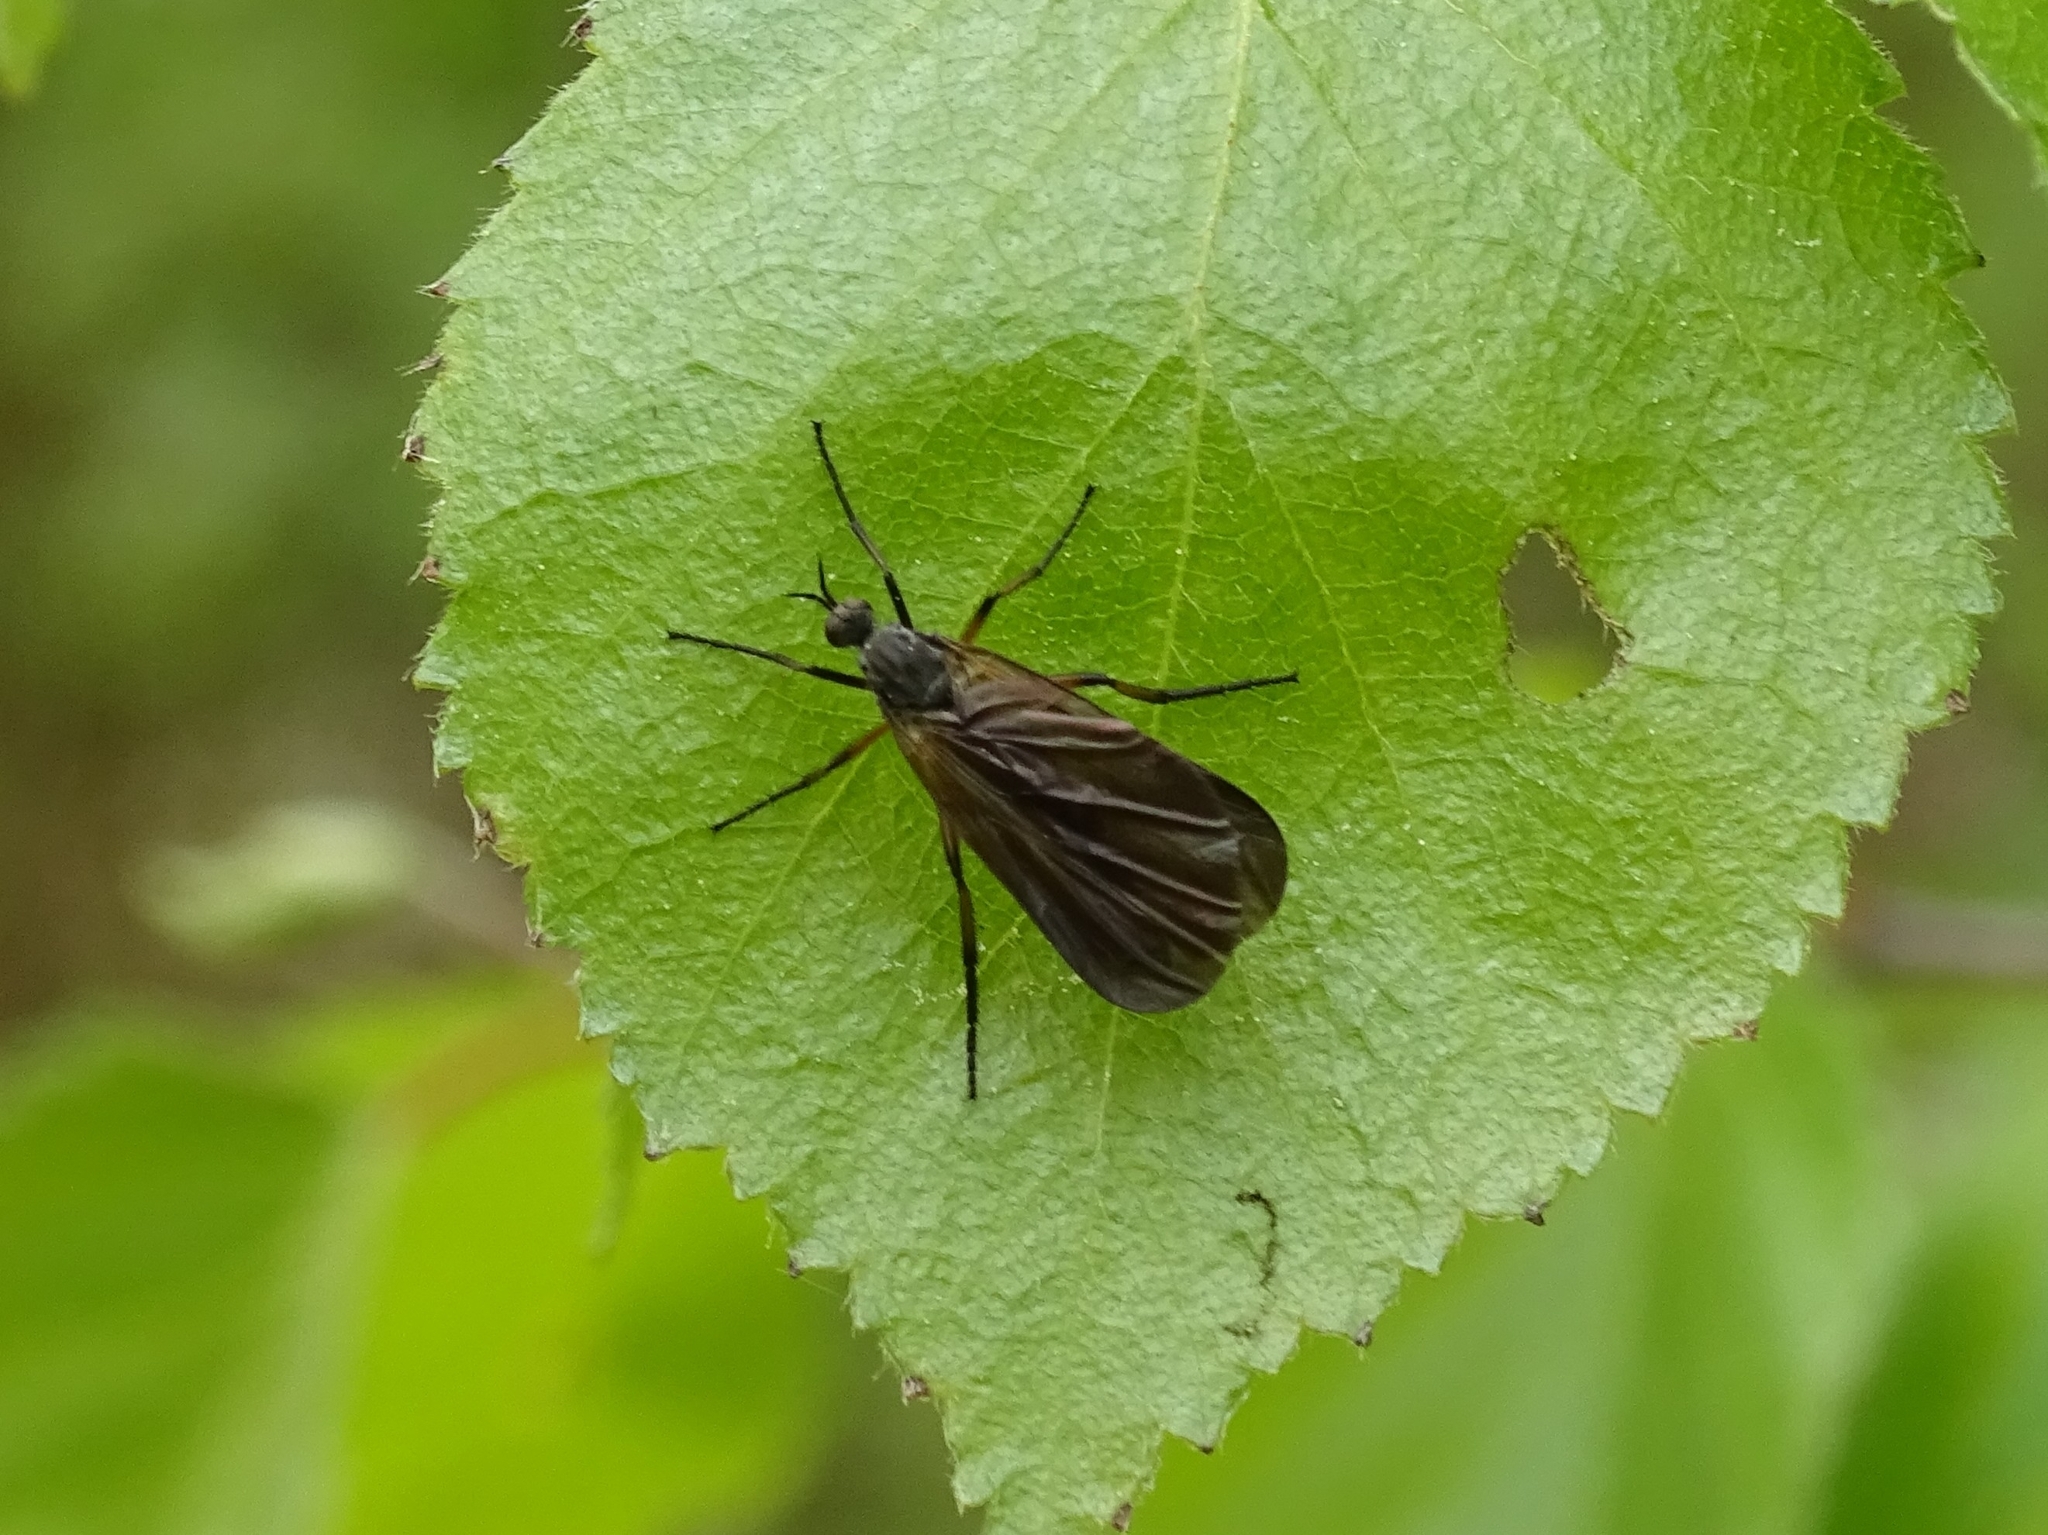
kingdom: Animalia
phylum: Arthropoda
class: Insecta
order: Diptera
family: Empididae
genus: Empis
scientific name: Empis borealis
